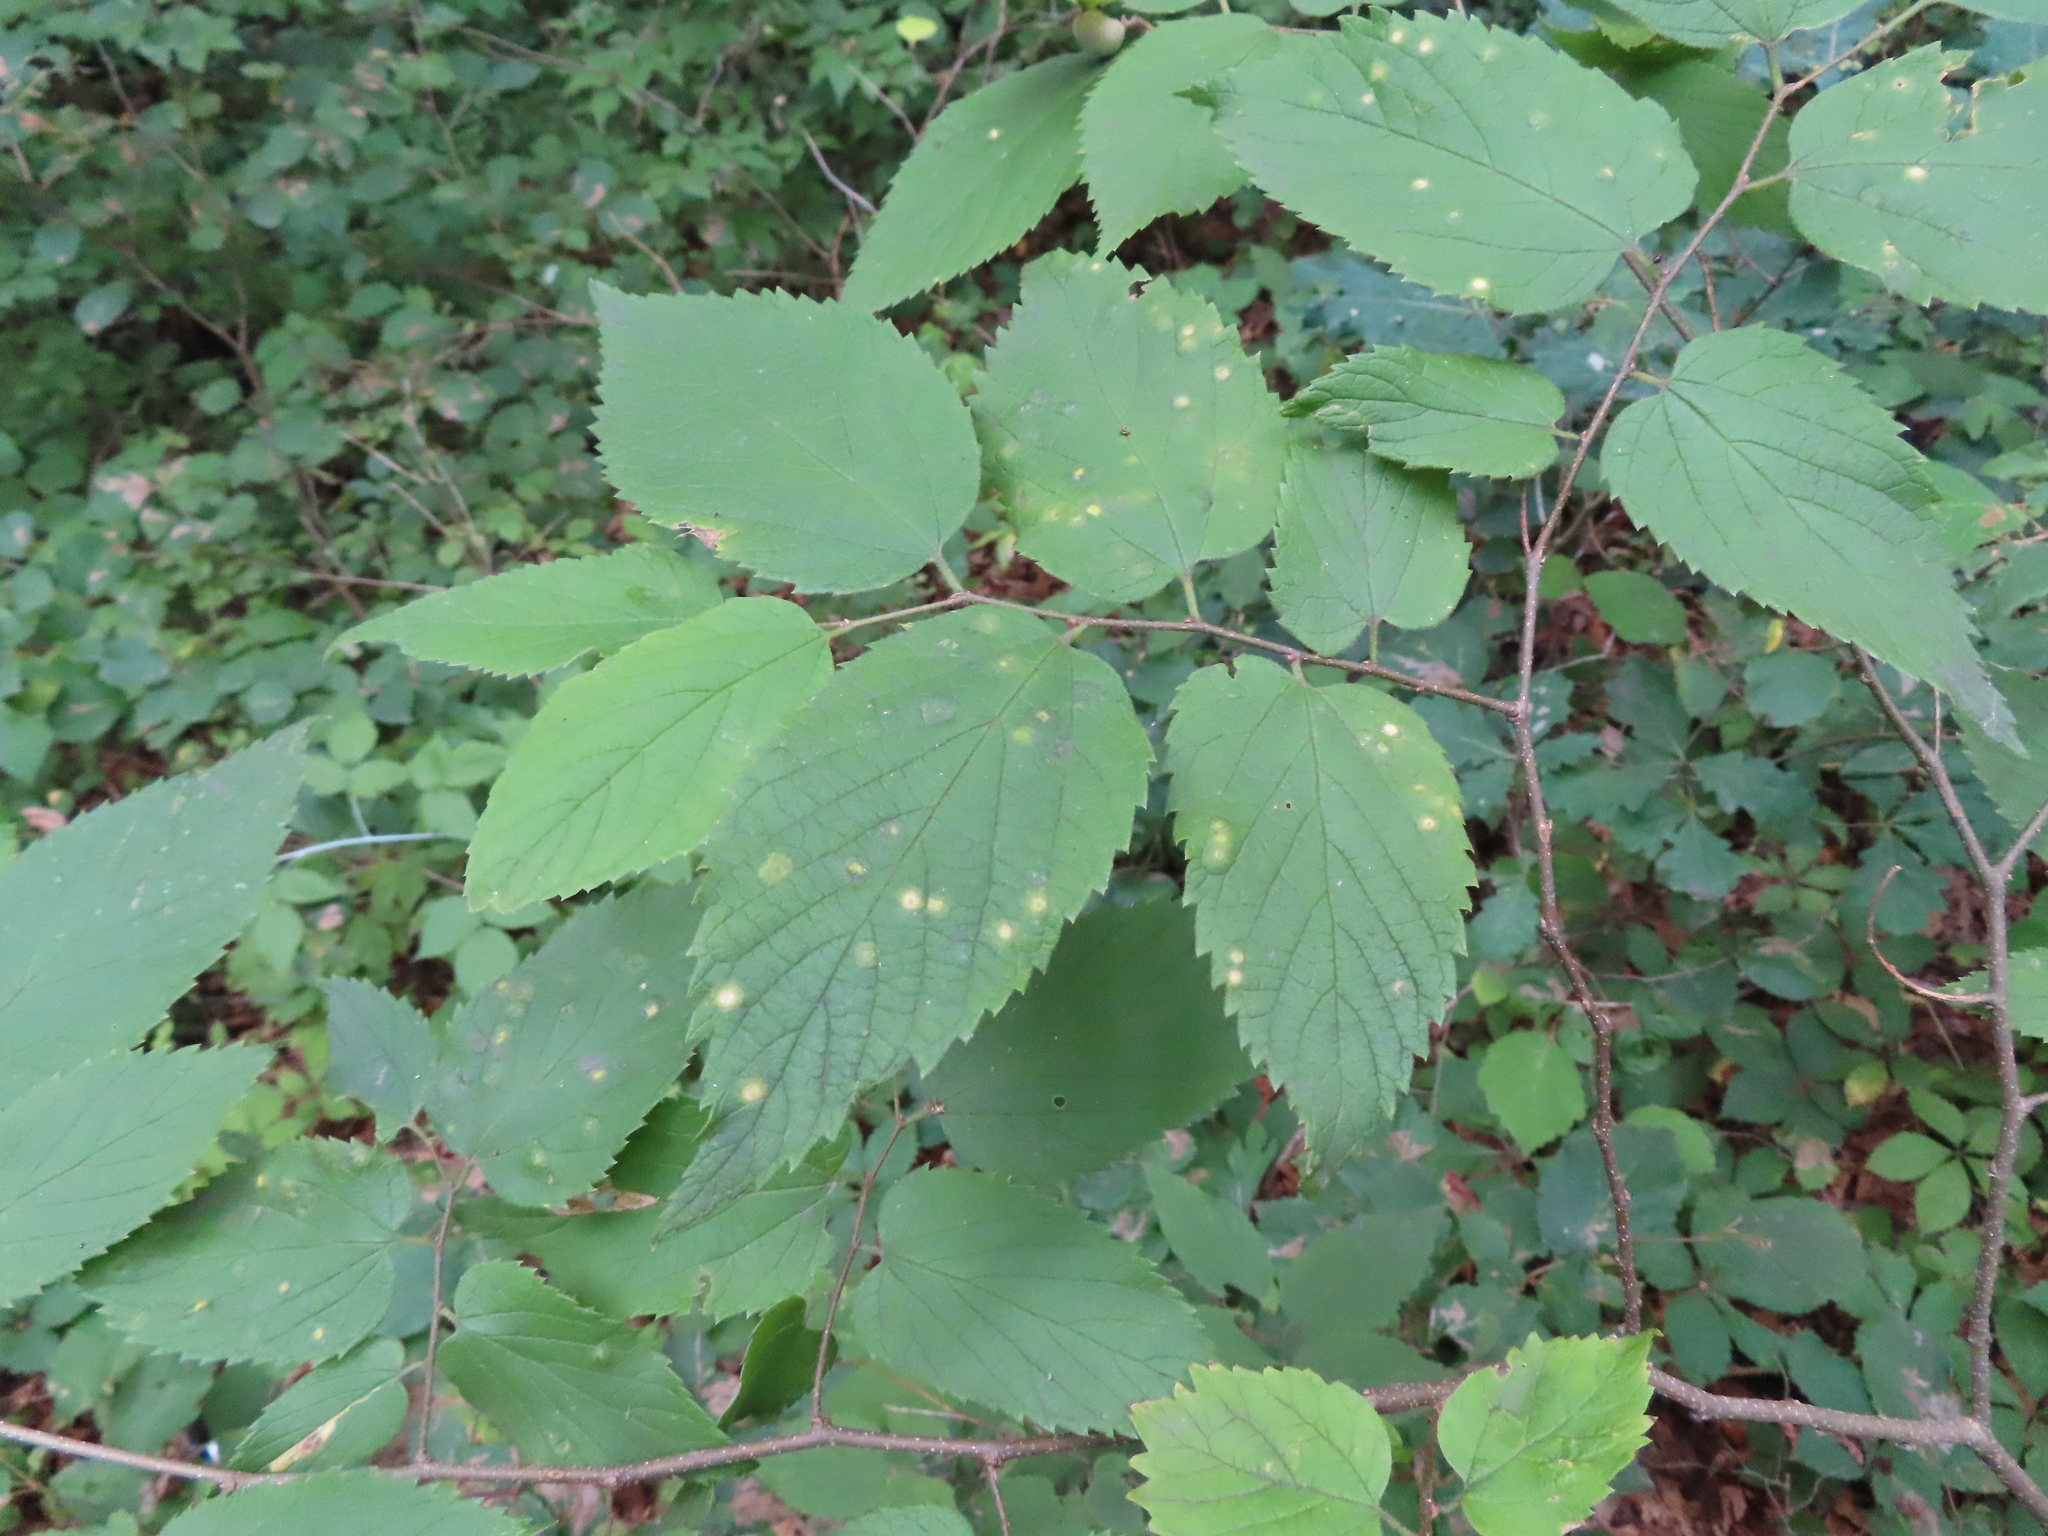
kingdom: Animalia
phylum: Arthropoda
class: Insecta
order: Hemiptera
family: Aphalaridae
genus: Pachypsylla
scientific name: Pachypsylla celtidisvesicula
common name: Hackberry blister gall psyllid
